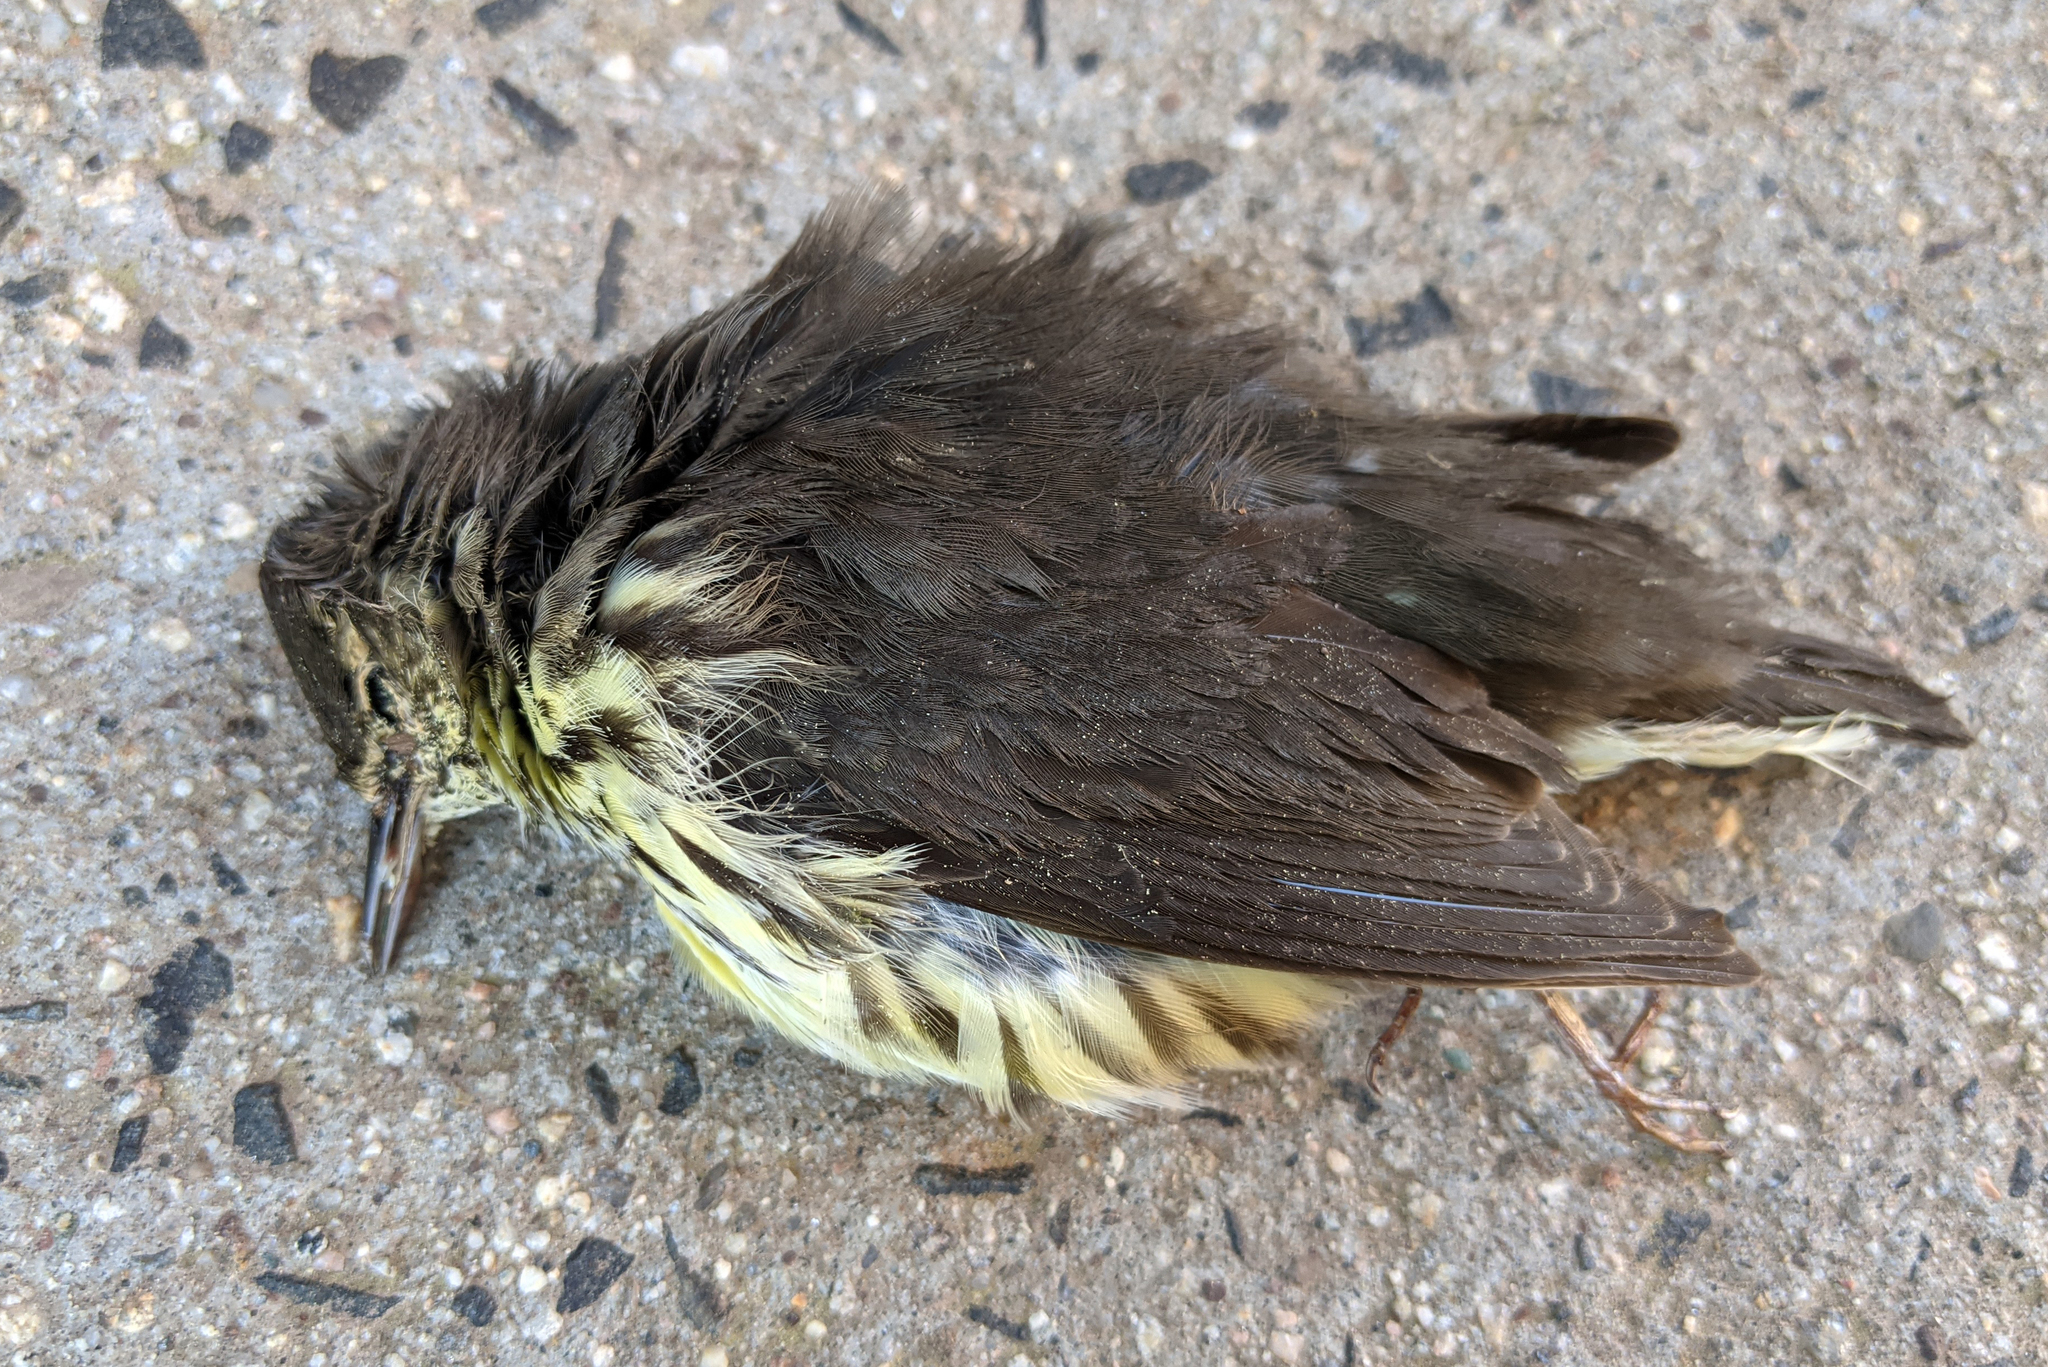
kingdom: Animalia
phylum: Chordata
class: Aves
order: Passeriformes
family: Parulidae
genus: Parkesia
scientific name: Parkesia noveboracensis
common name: Northern waterthrush
